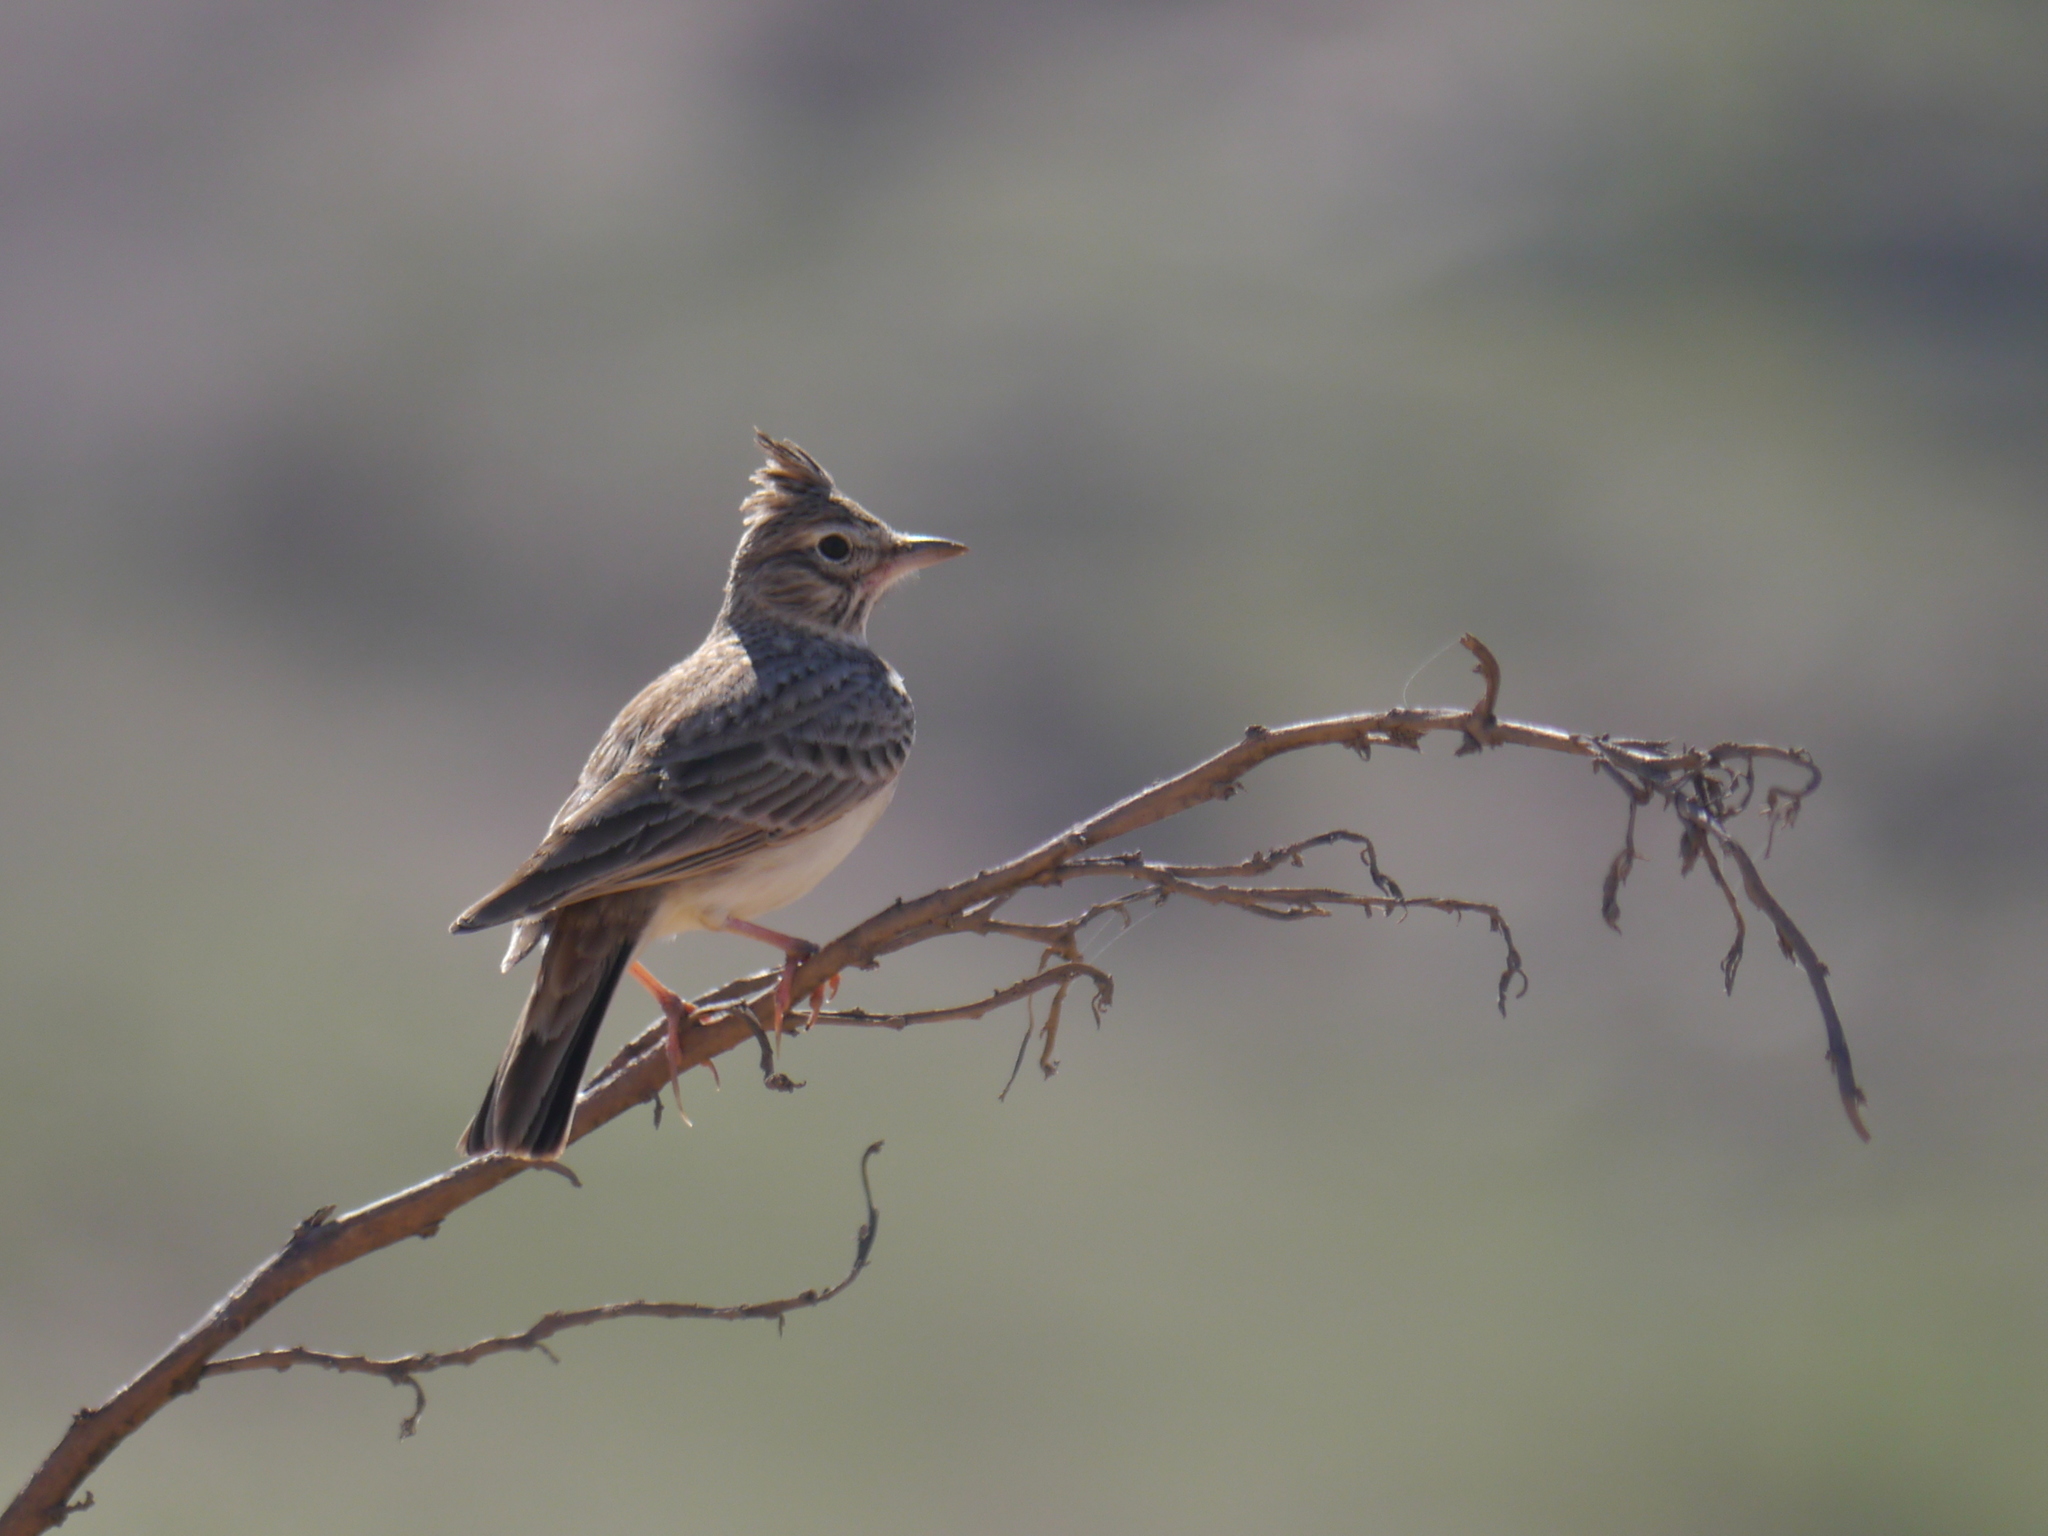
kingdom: Animalia
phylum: Chordata
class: Aves
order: Passeriformes
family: Alaudidae
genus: Galerida
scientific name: Galerida theklae
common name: Thekla lark
